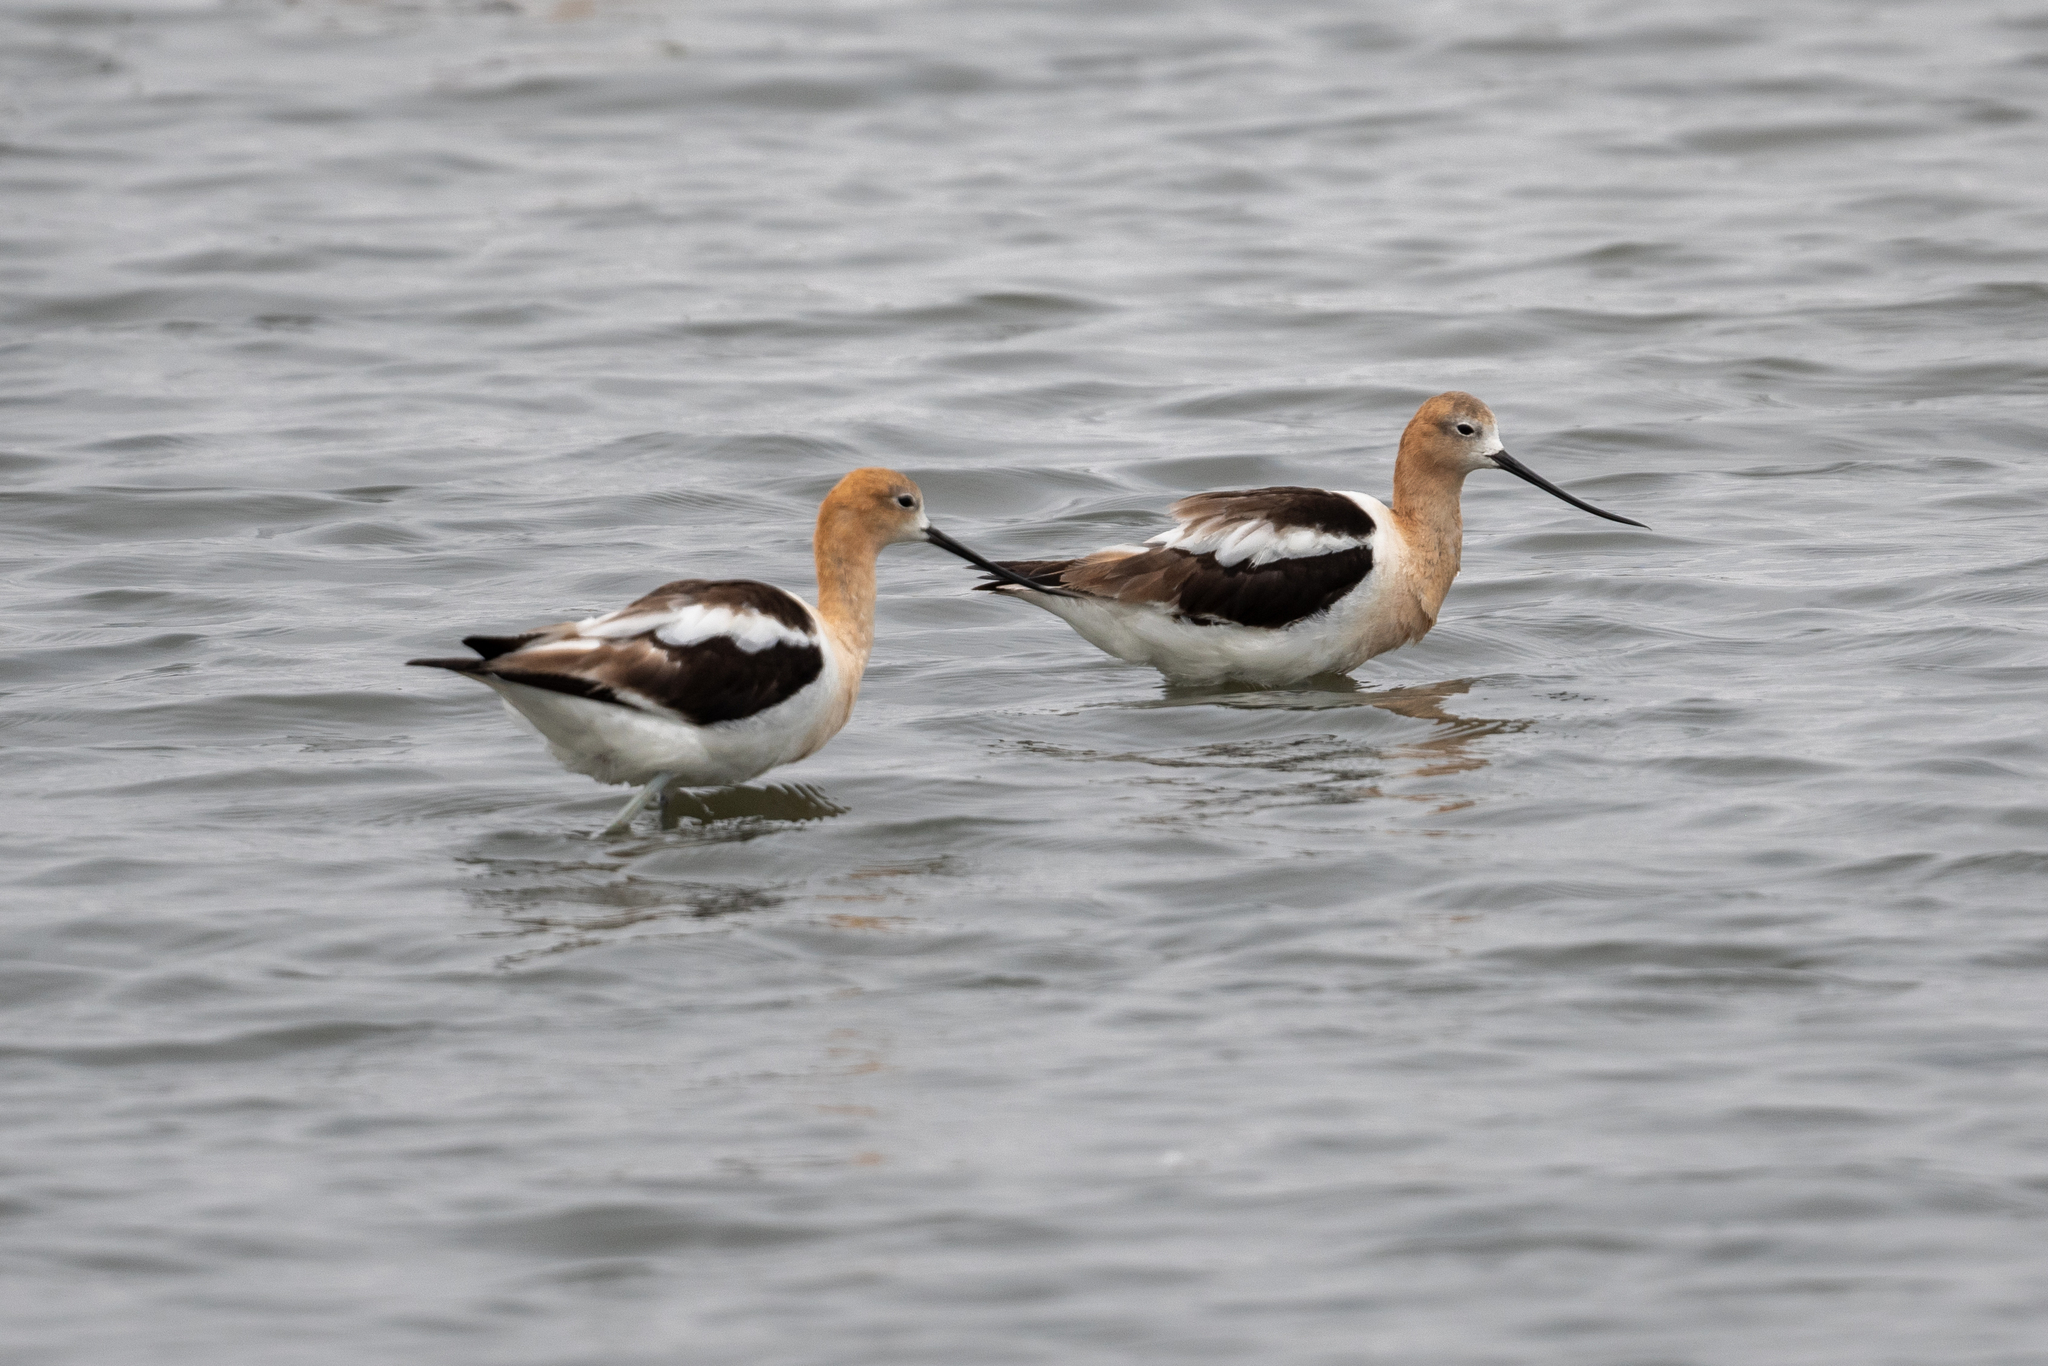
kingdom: Animalia
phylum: Chordata
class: Aves
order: Charadriiformes
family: Recurvirostridae
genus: Recurvirostra
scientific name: Recurvirostra americana
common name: American avocet
